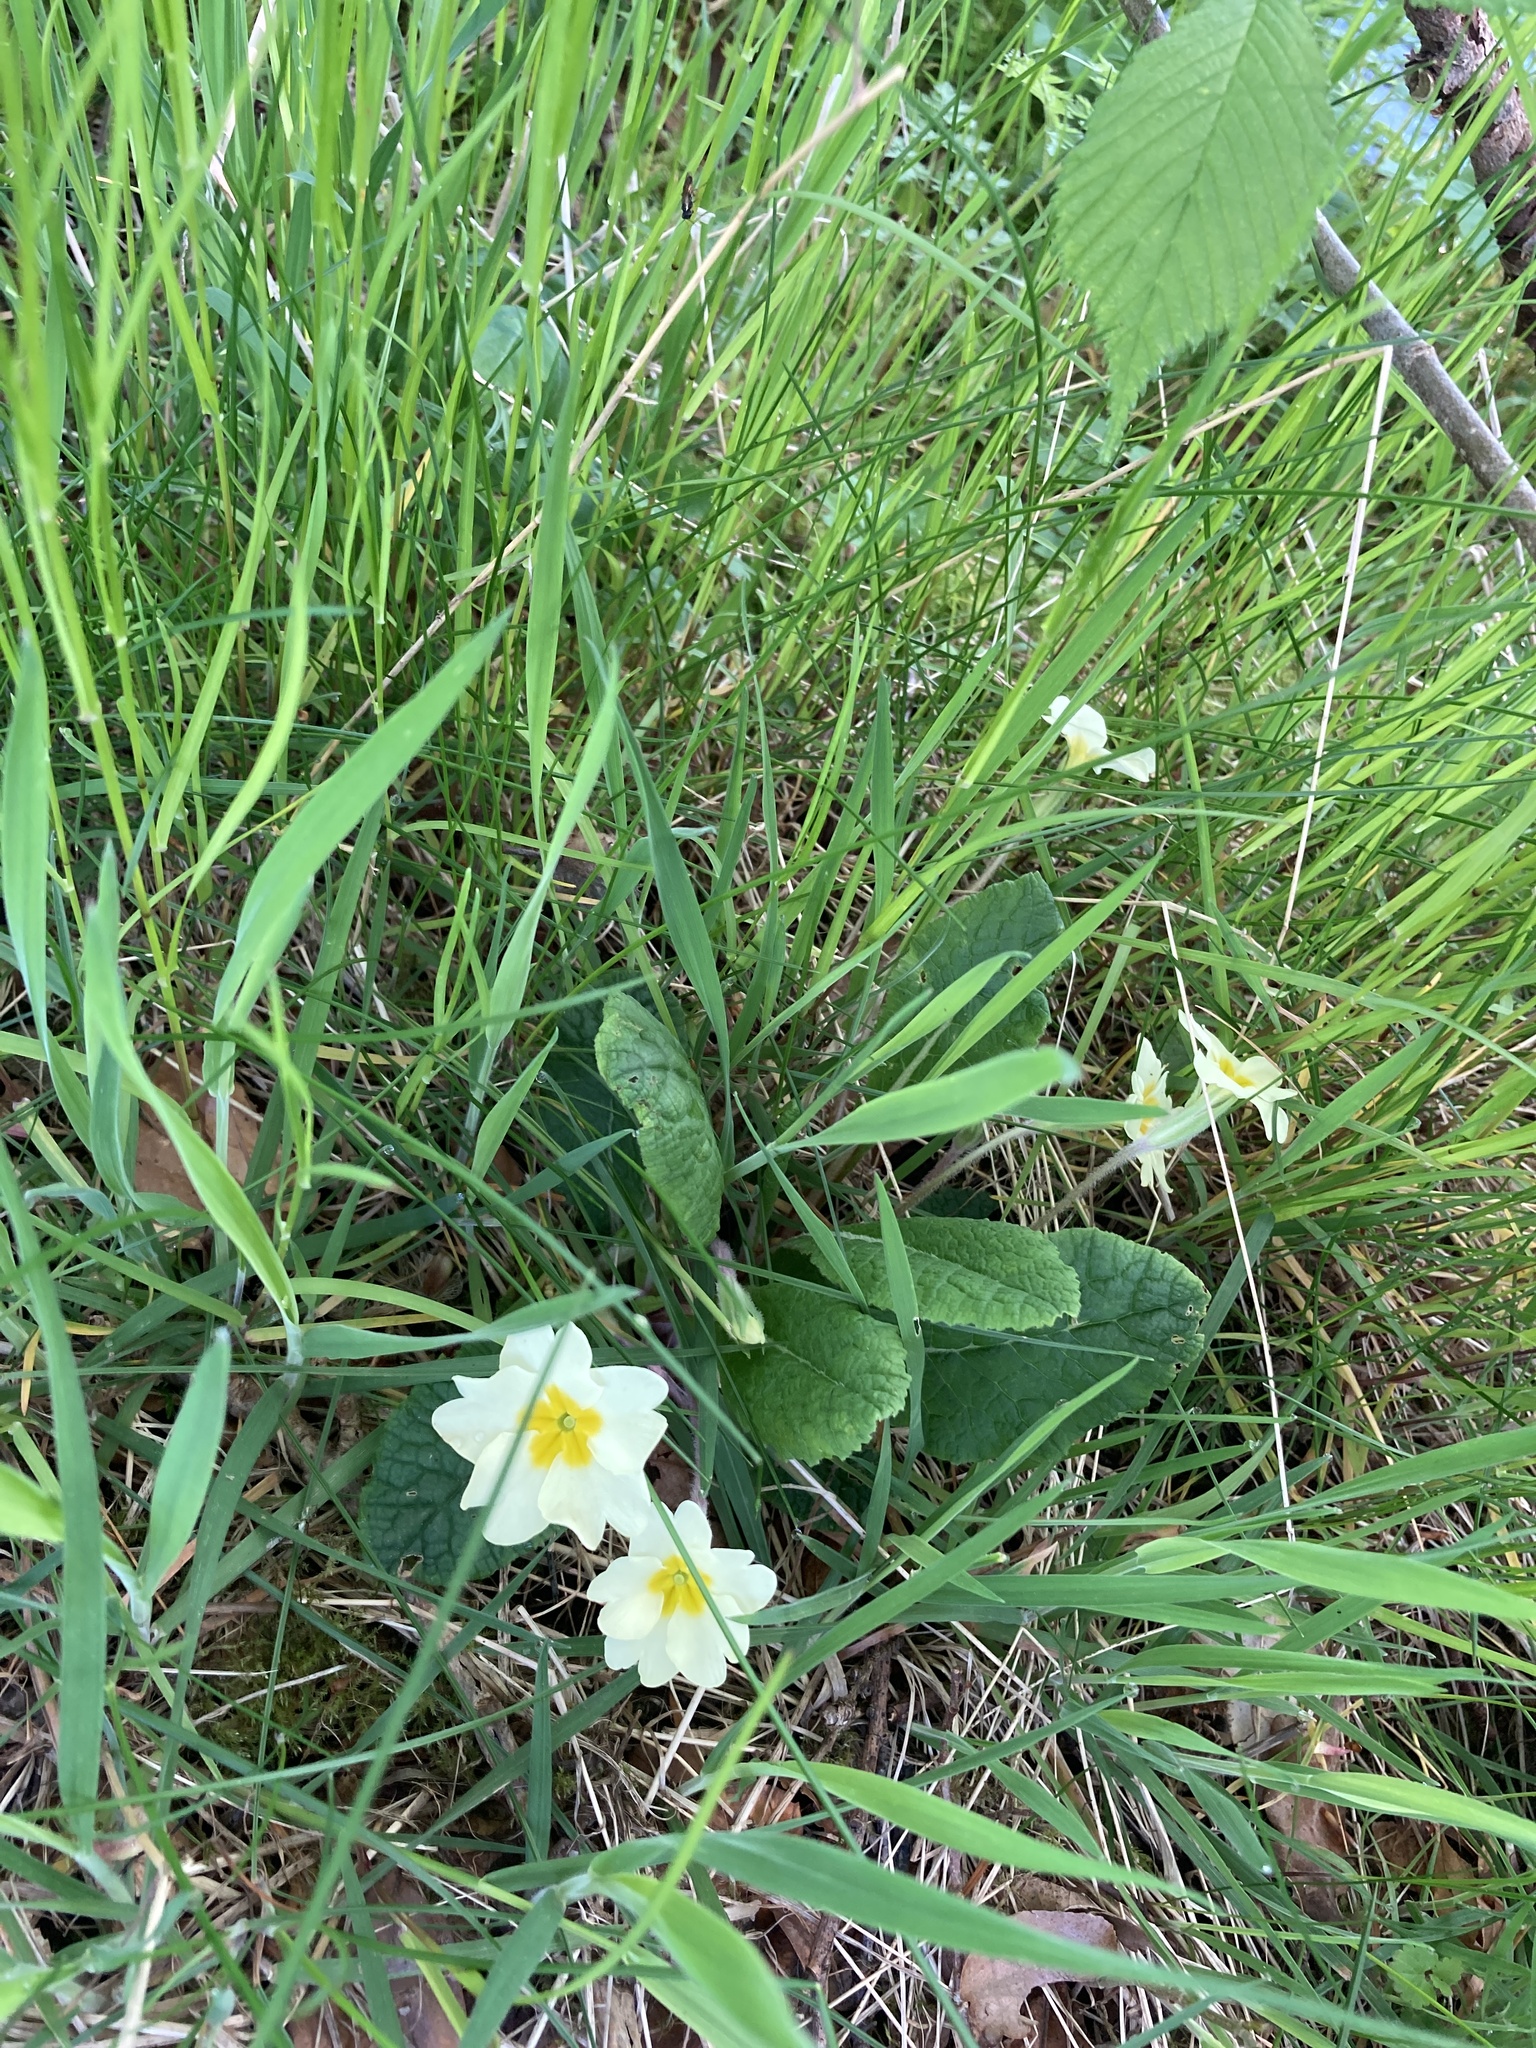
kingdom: Plantae
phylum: Tracheophyta
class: Magnoliopsida
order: Ericales
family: Primulaceae
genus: Primula
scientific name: Primula vulgaris
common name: Primrose
